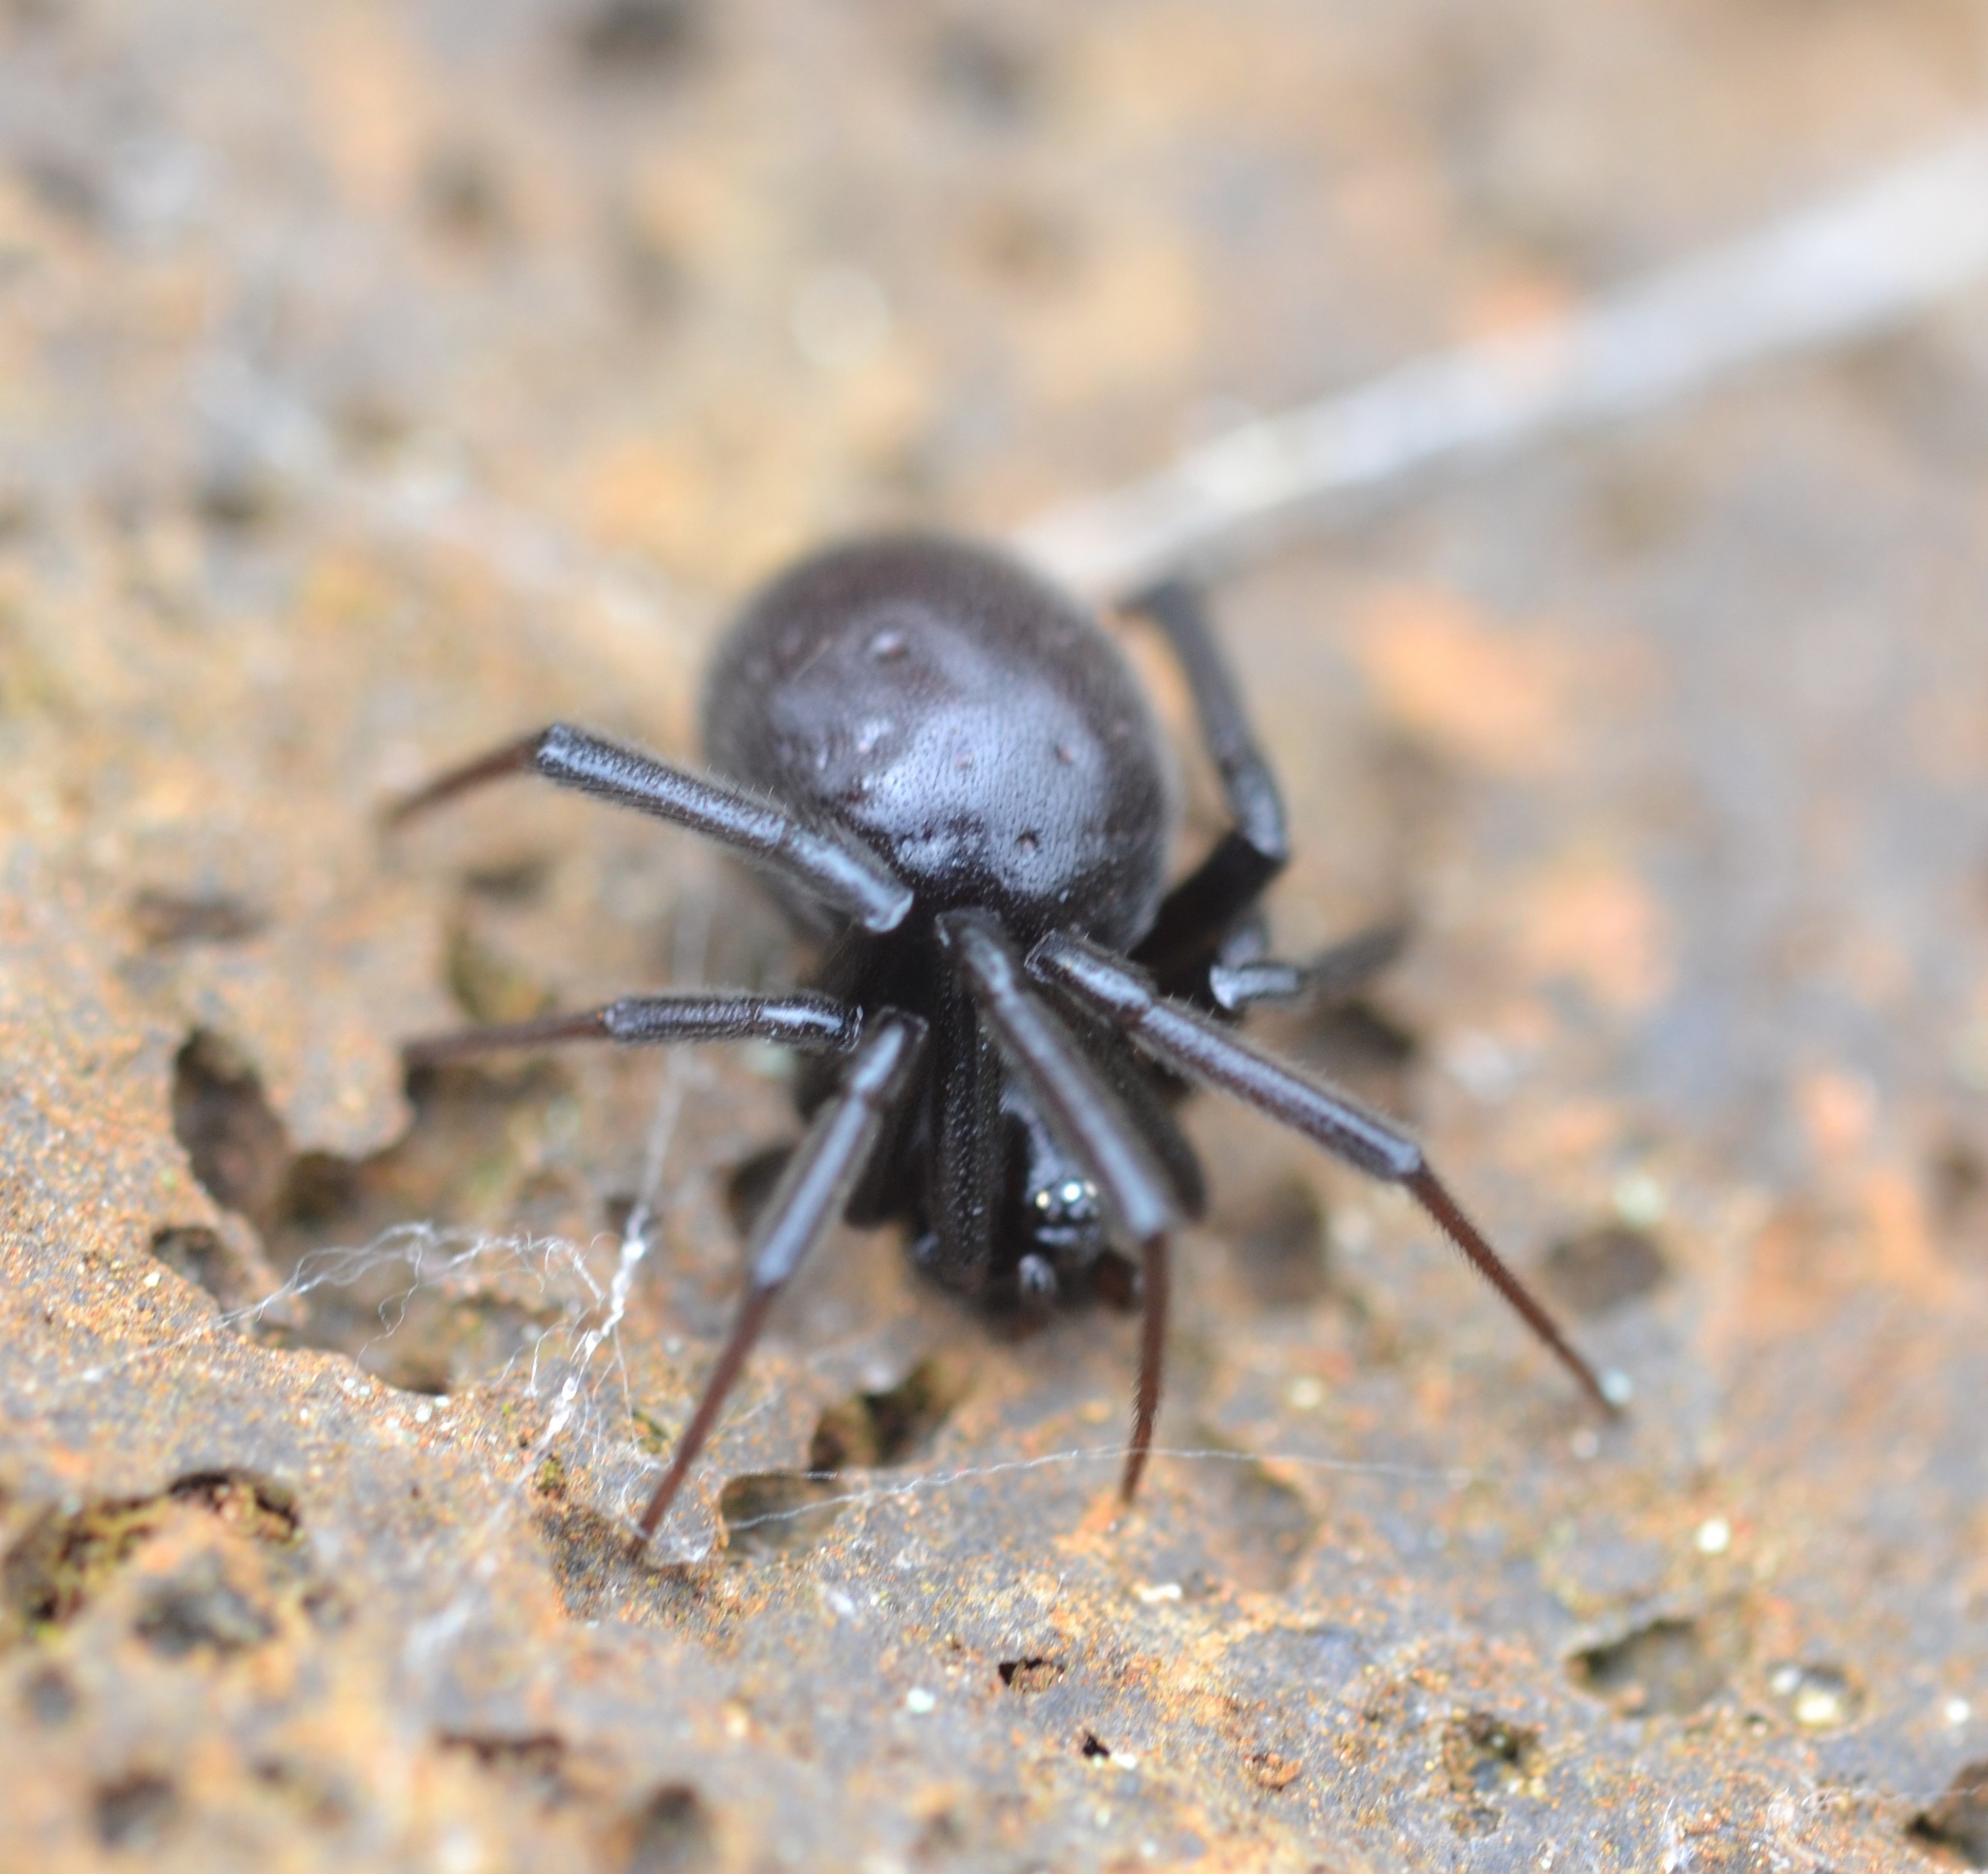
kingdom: Animalia
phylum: Arthropoda
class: Arachnida
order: Araneae
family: Theridiidae
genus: Steatoda
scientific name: Steatoda grossa
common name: False black widow
